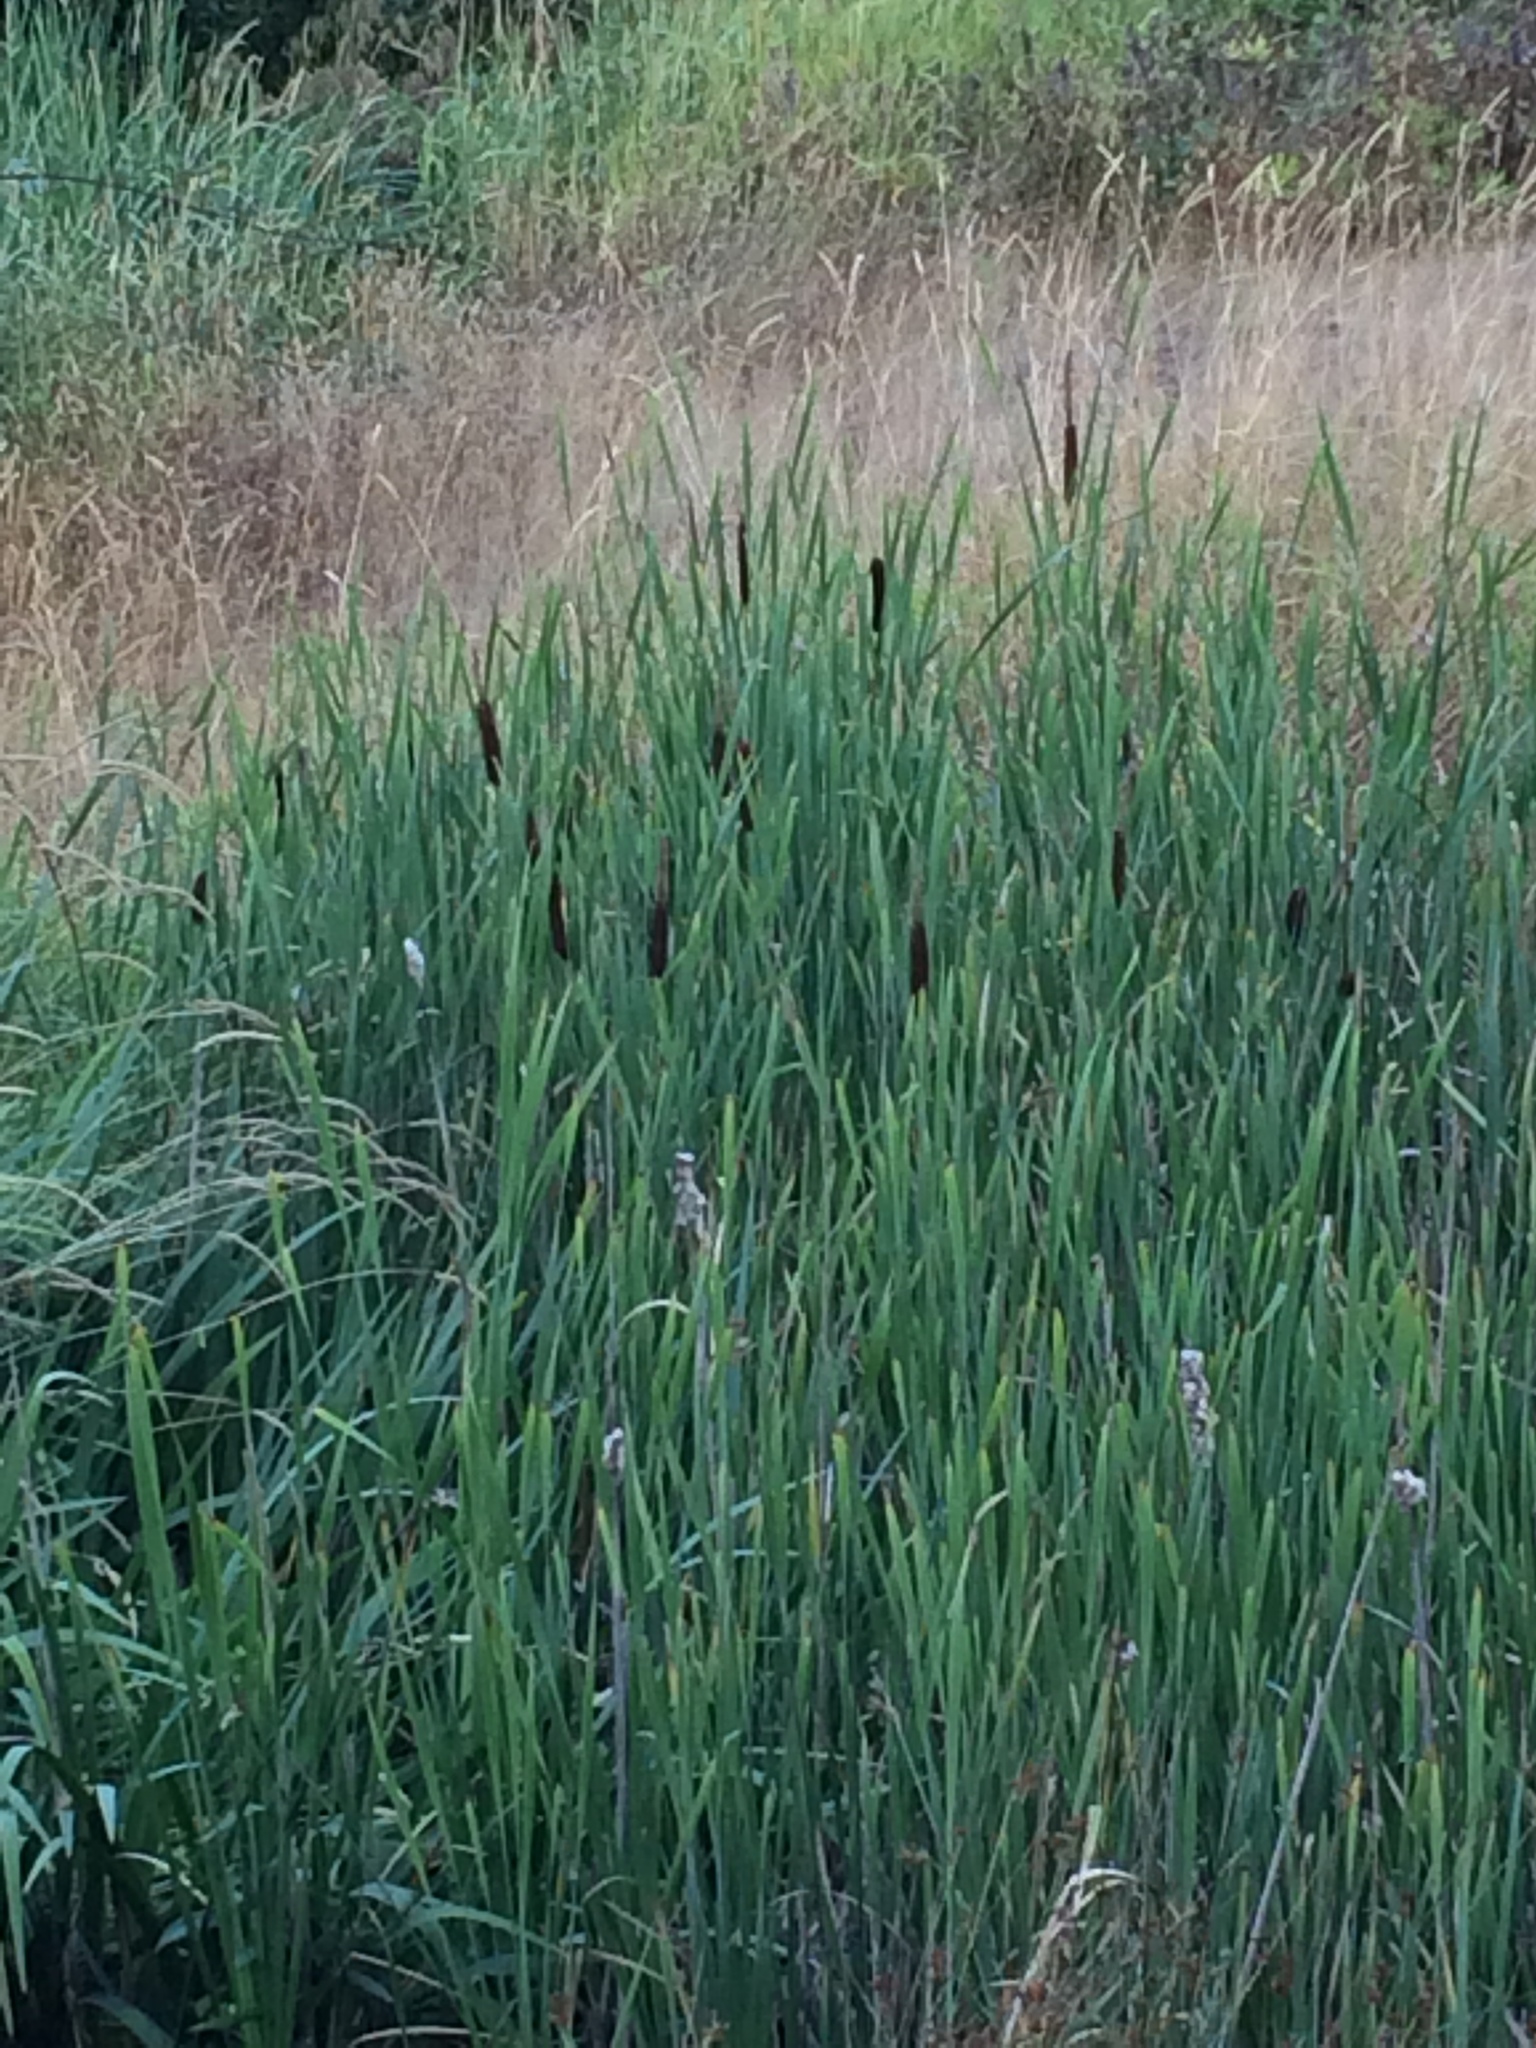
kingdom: Plantae
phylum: Tracheophyta
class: Liliopsida
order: Poales
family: Typhaceae
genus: Typha
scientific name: Typha latifolia
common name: Broadleaf cattail
